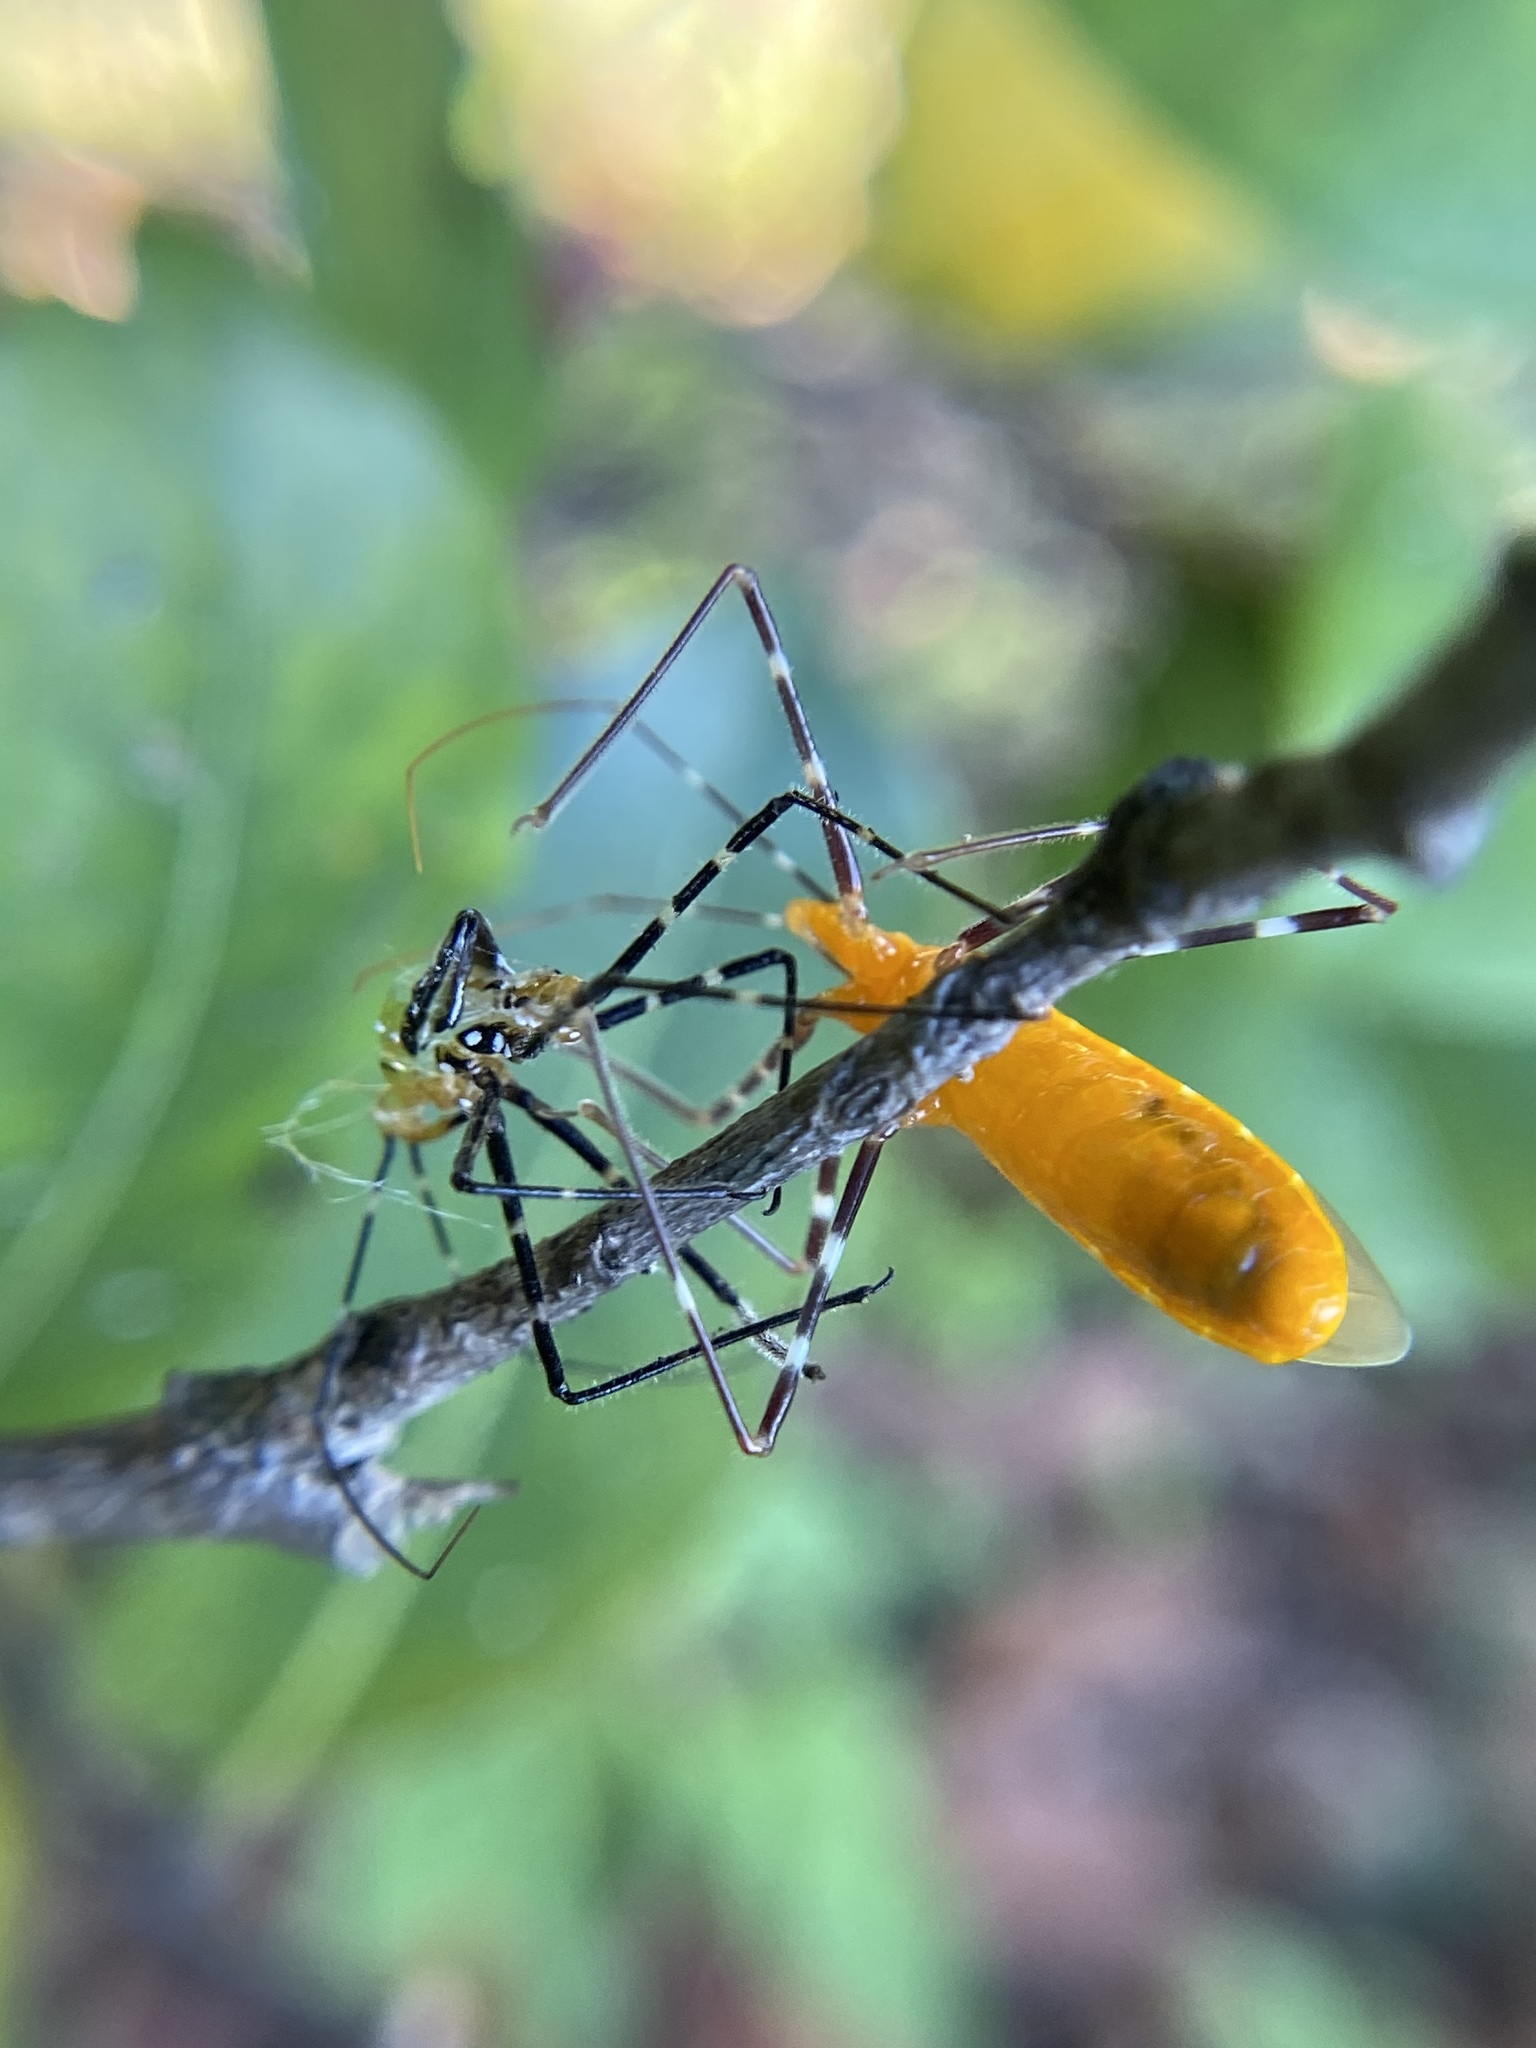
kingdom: Animalia
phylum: Arthropoda
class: Insecta
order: Hemiptera
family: Reduviidae
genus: Zelus
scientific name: Zelus longipes
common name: Milkweed assassin bug
